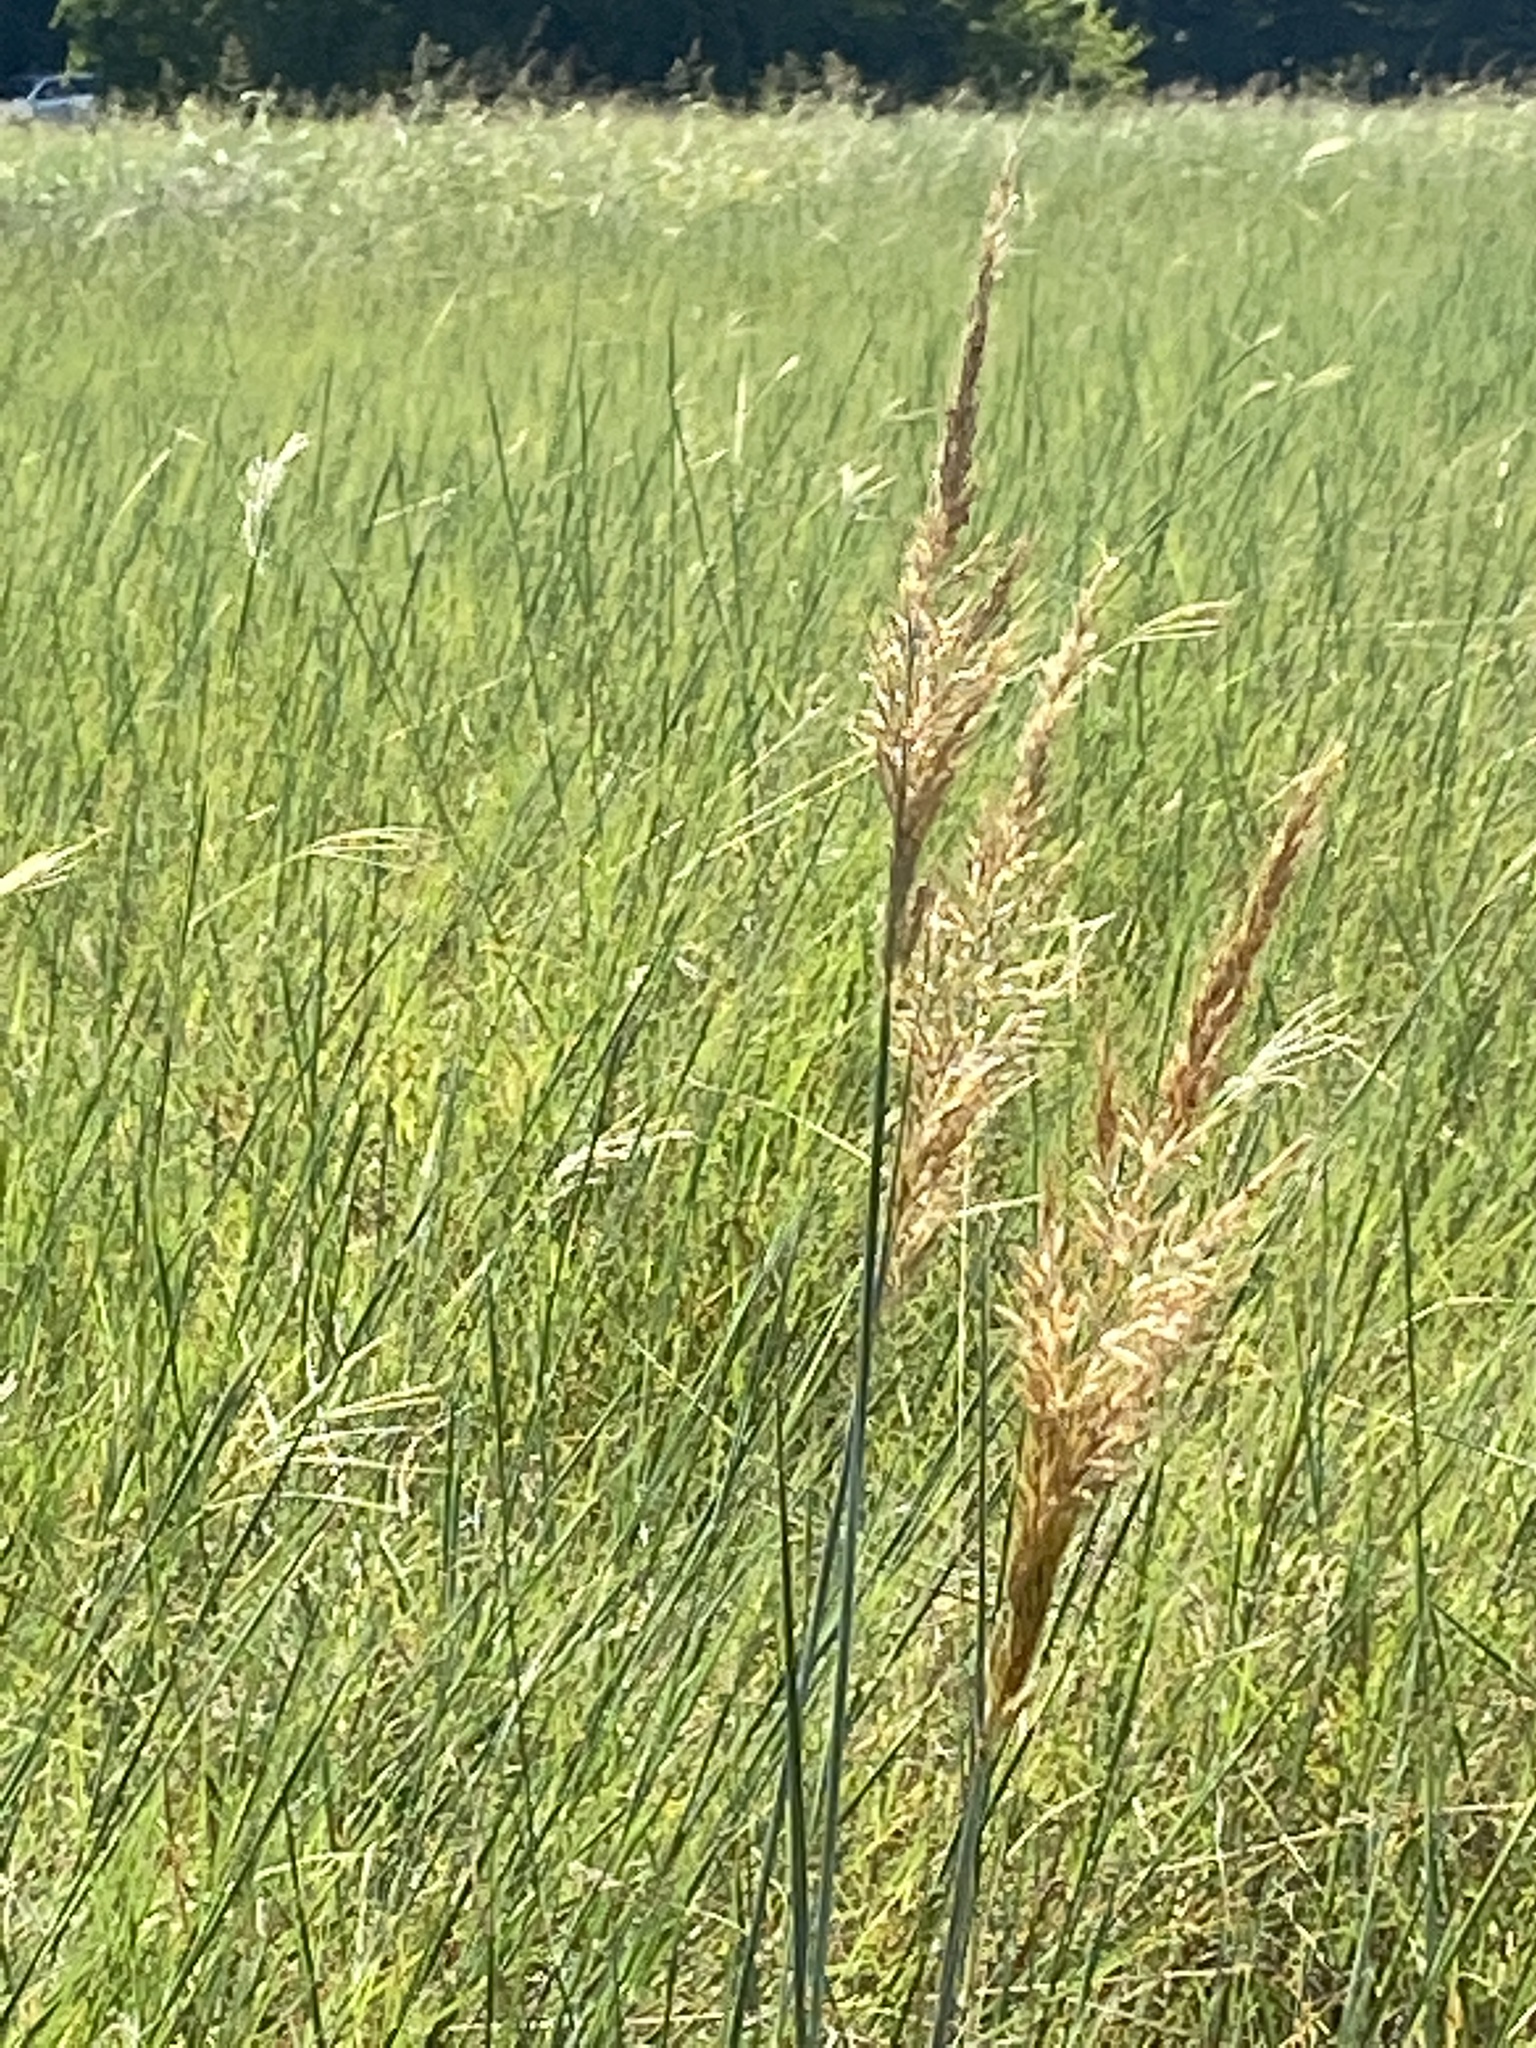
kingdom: Plantae
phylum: Tracheophyta
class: Liliopsida
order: Poales
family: Poaceae
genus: Sorghastrum
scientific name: Sorghastrum nutans
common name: Indian grass
